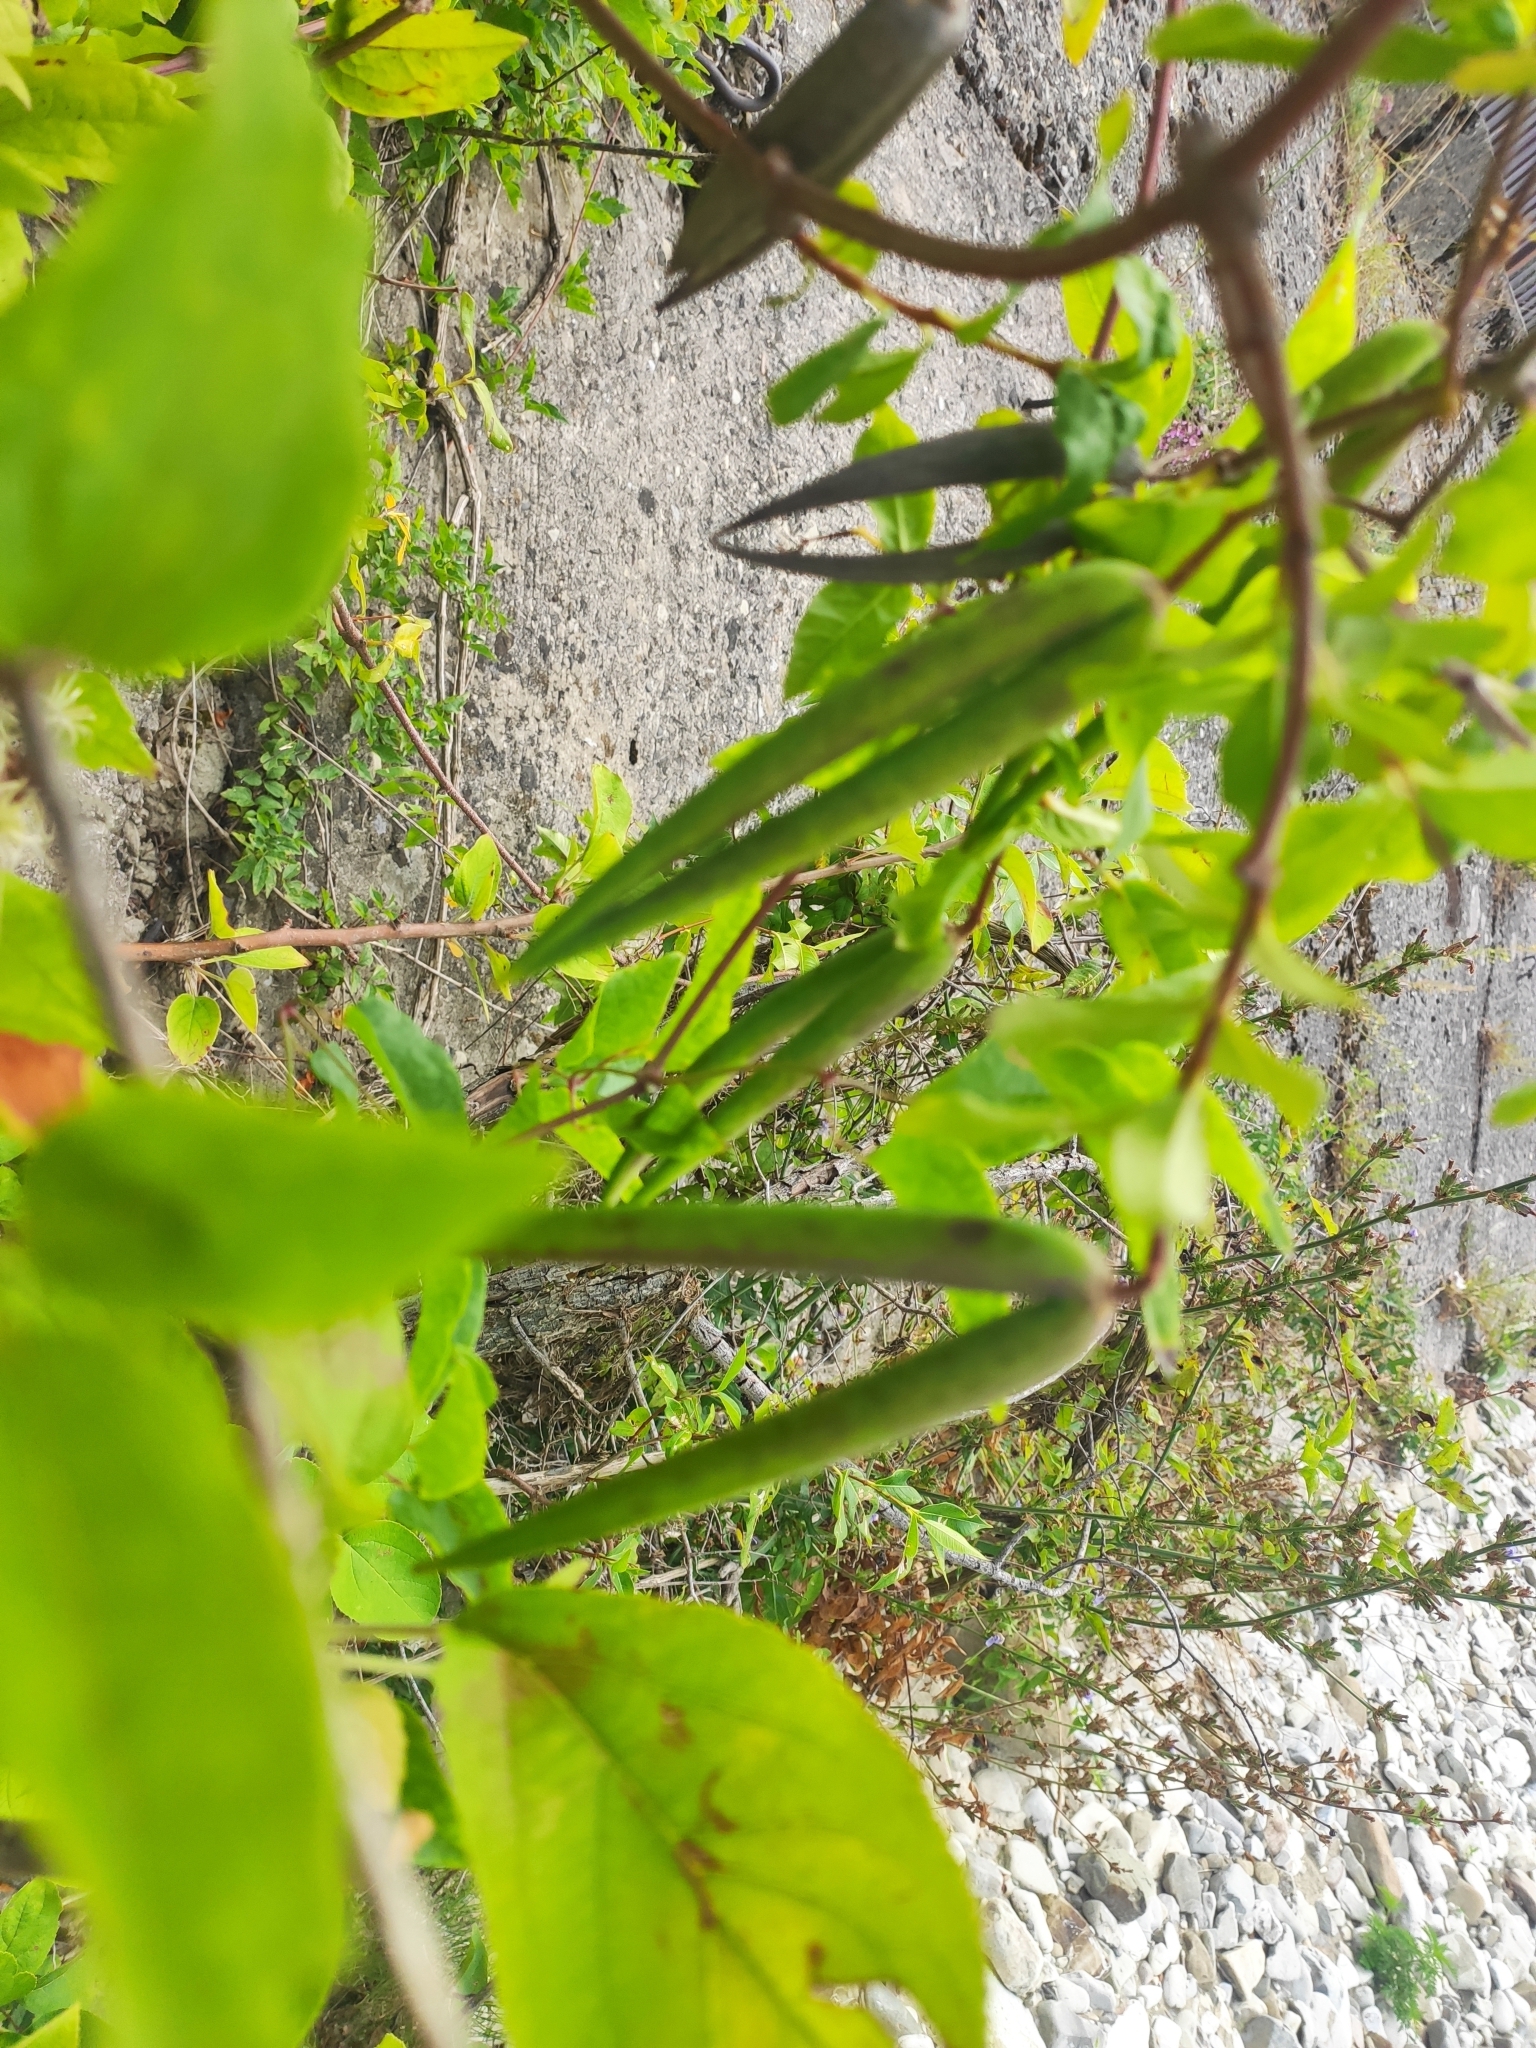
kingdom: Plantae
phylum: Tracheophyta
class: Magnoliopsida
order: Ranunculales
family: Ranunculaceae
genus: Clematis
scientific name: Clematis vitalba
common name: Evergreen clematis
